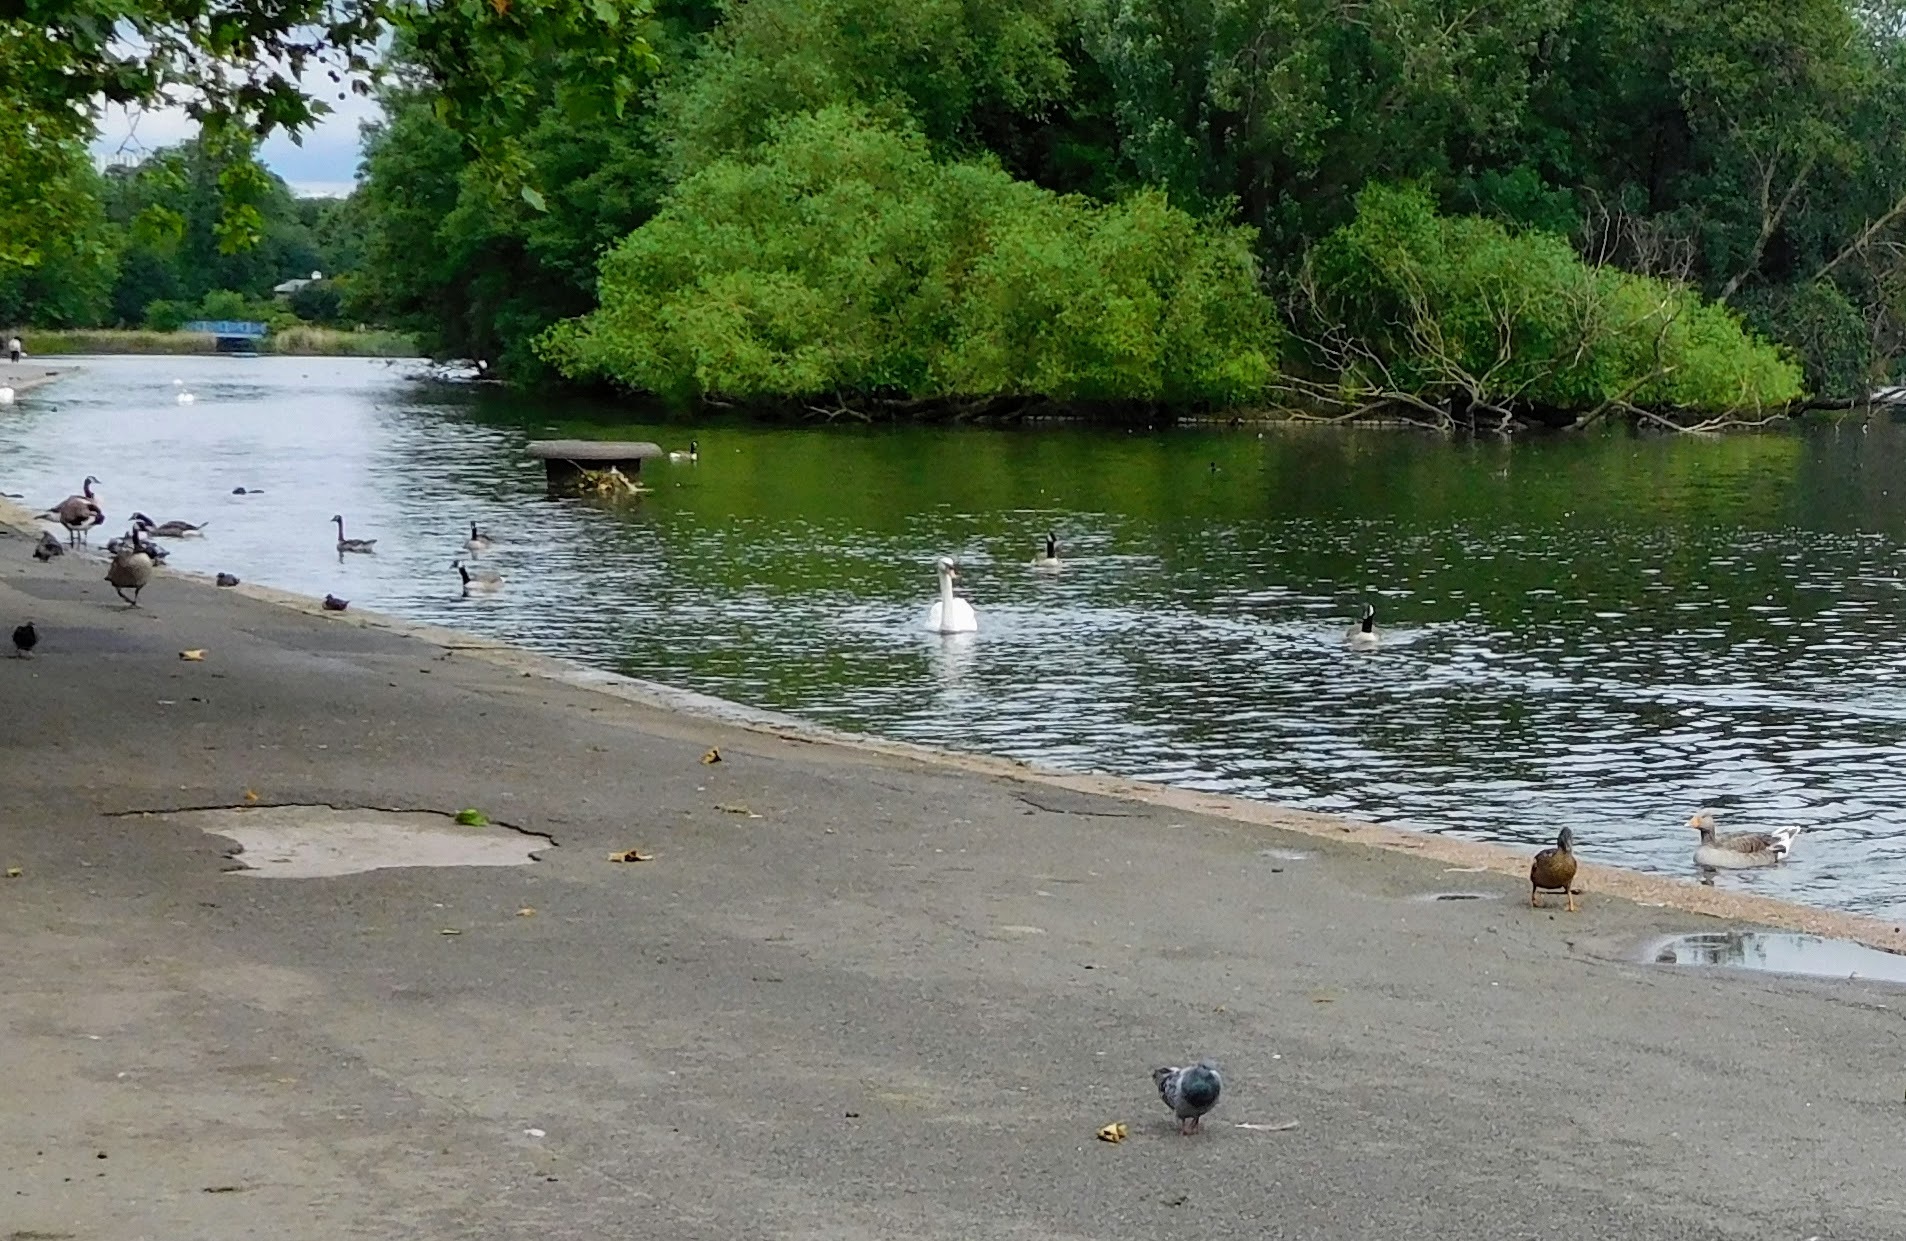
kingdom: Animalia
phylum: Chordata
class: Aves
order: Anseriformes
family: Anatidae
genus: Cygnus
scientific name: Cygnus olor
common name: Mute swan
